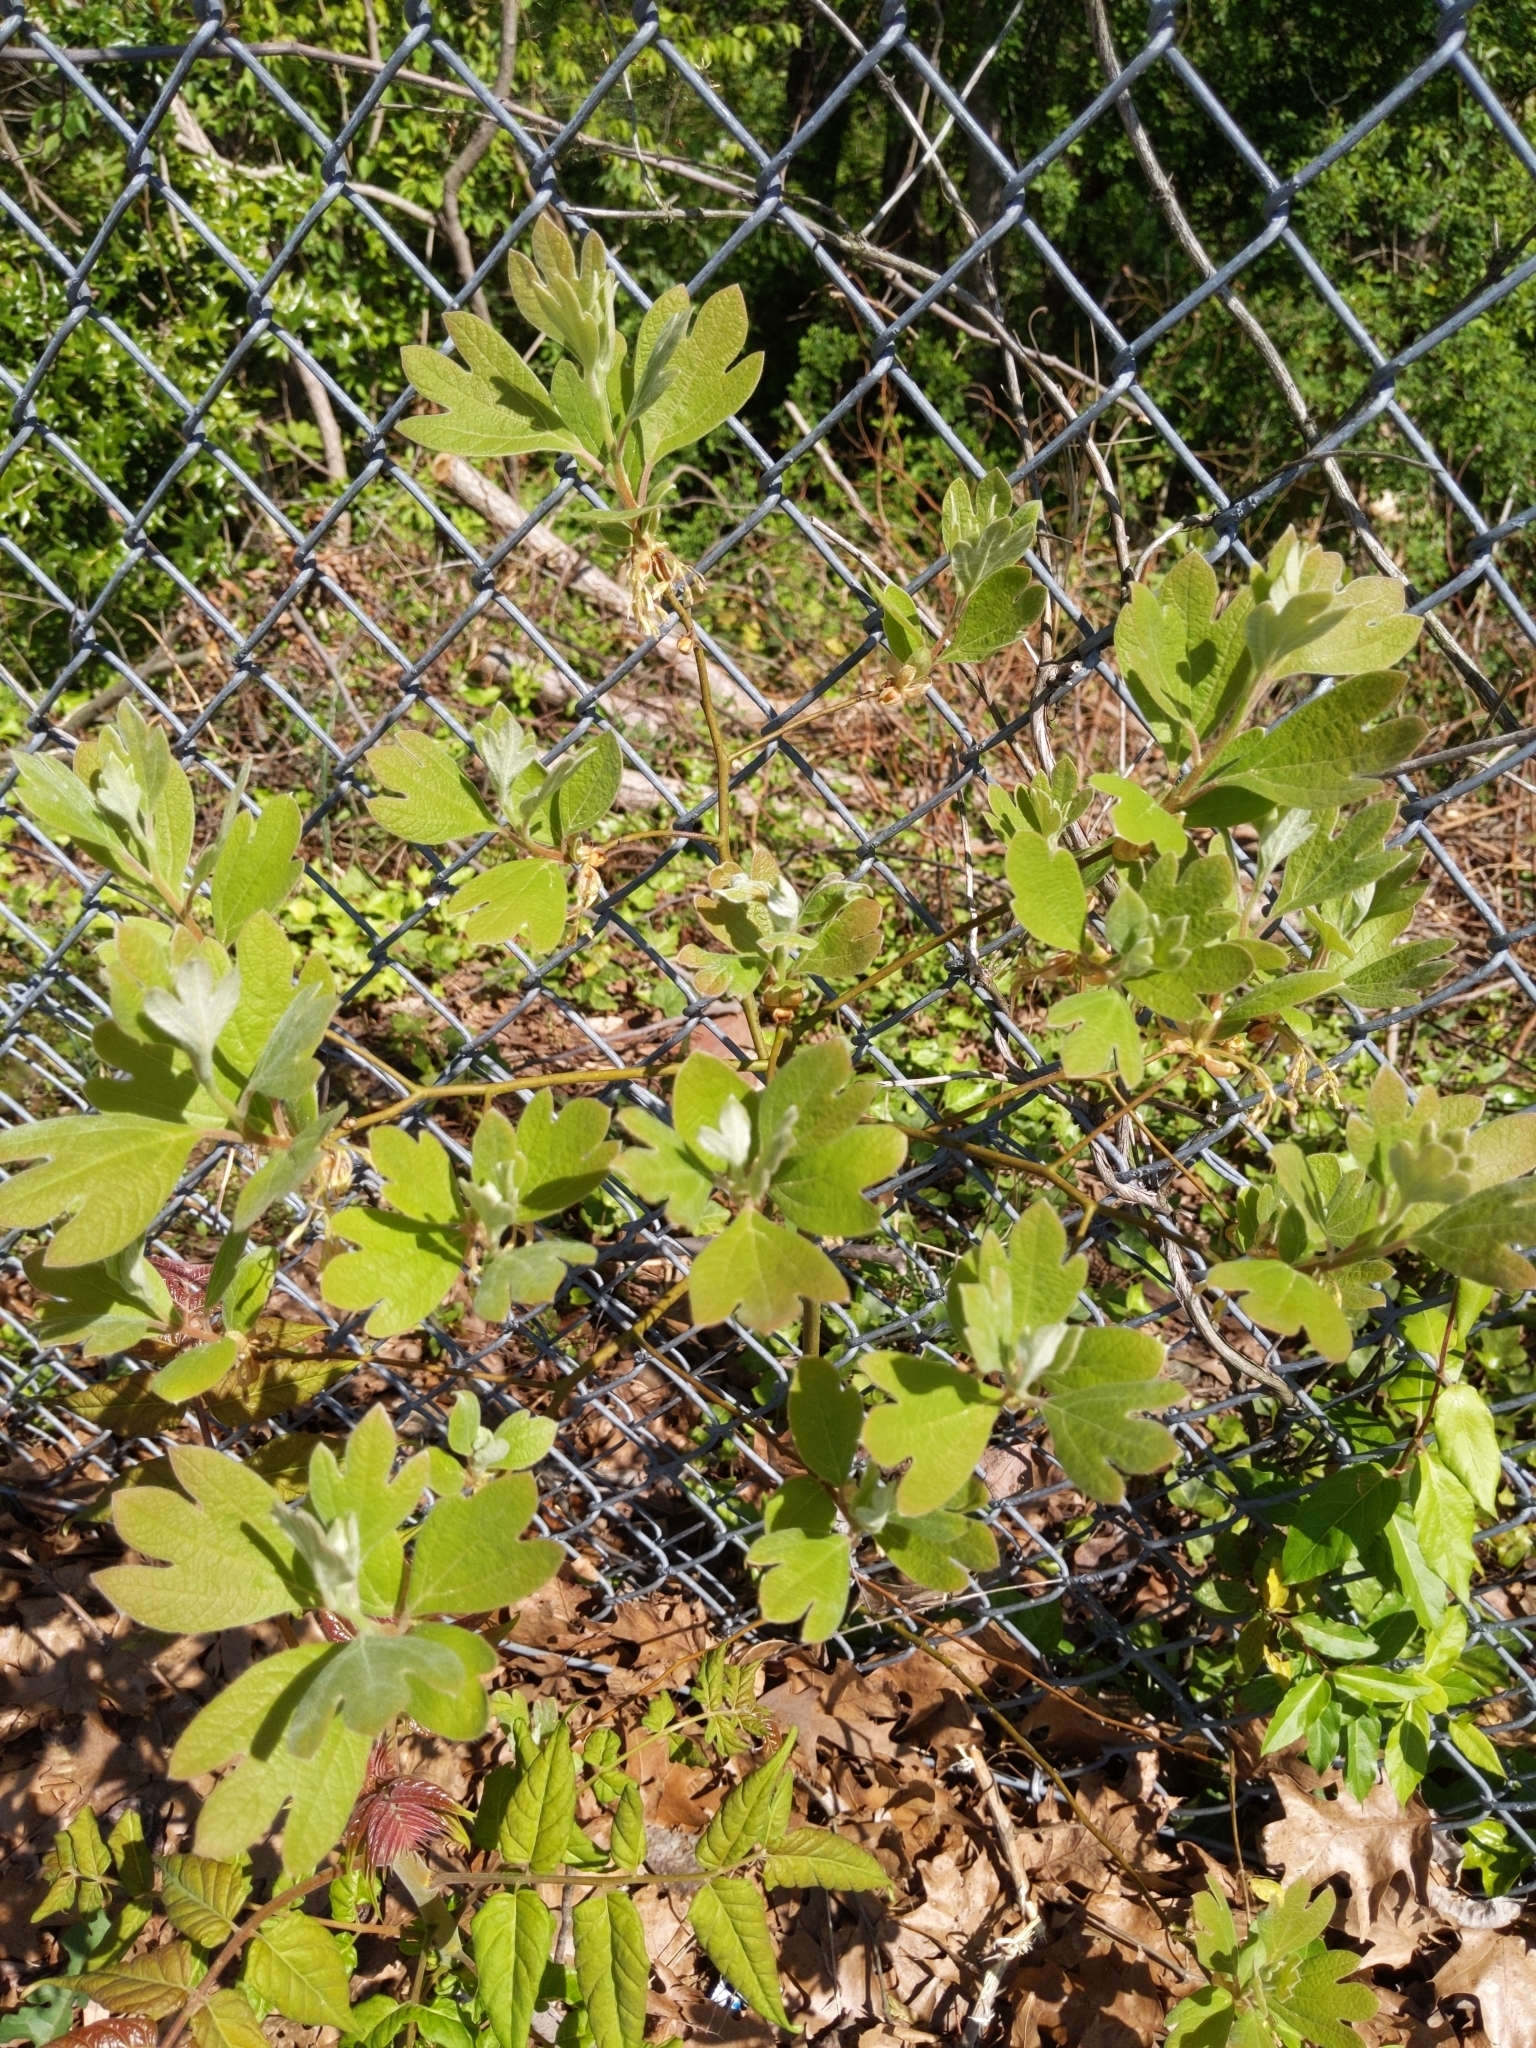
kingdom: Plantae
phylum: Tracheophyta
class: Magnoliopsida
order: Laurales
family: Lauraceae
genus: Sassafras
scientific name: Sassafras albidum
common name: Sassafras
